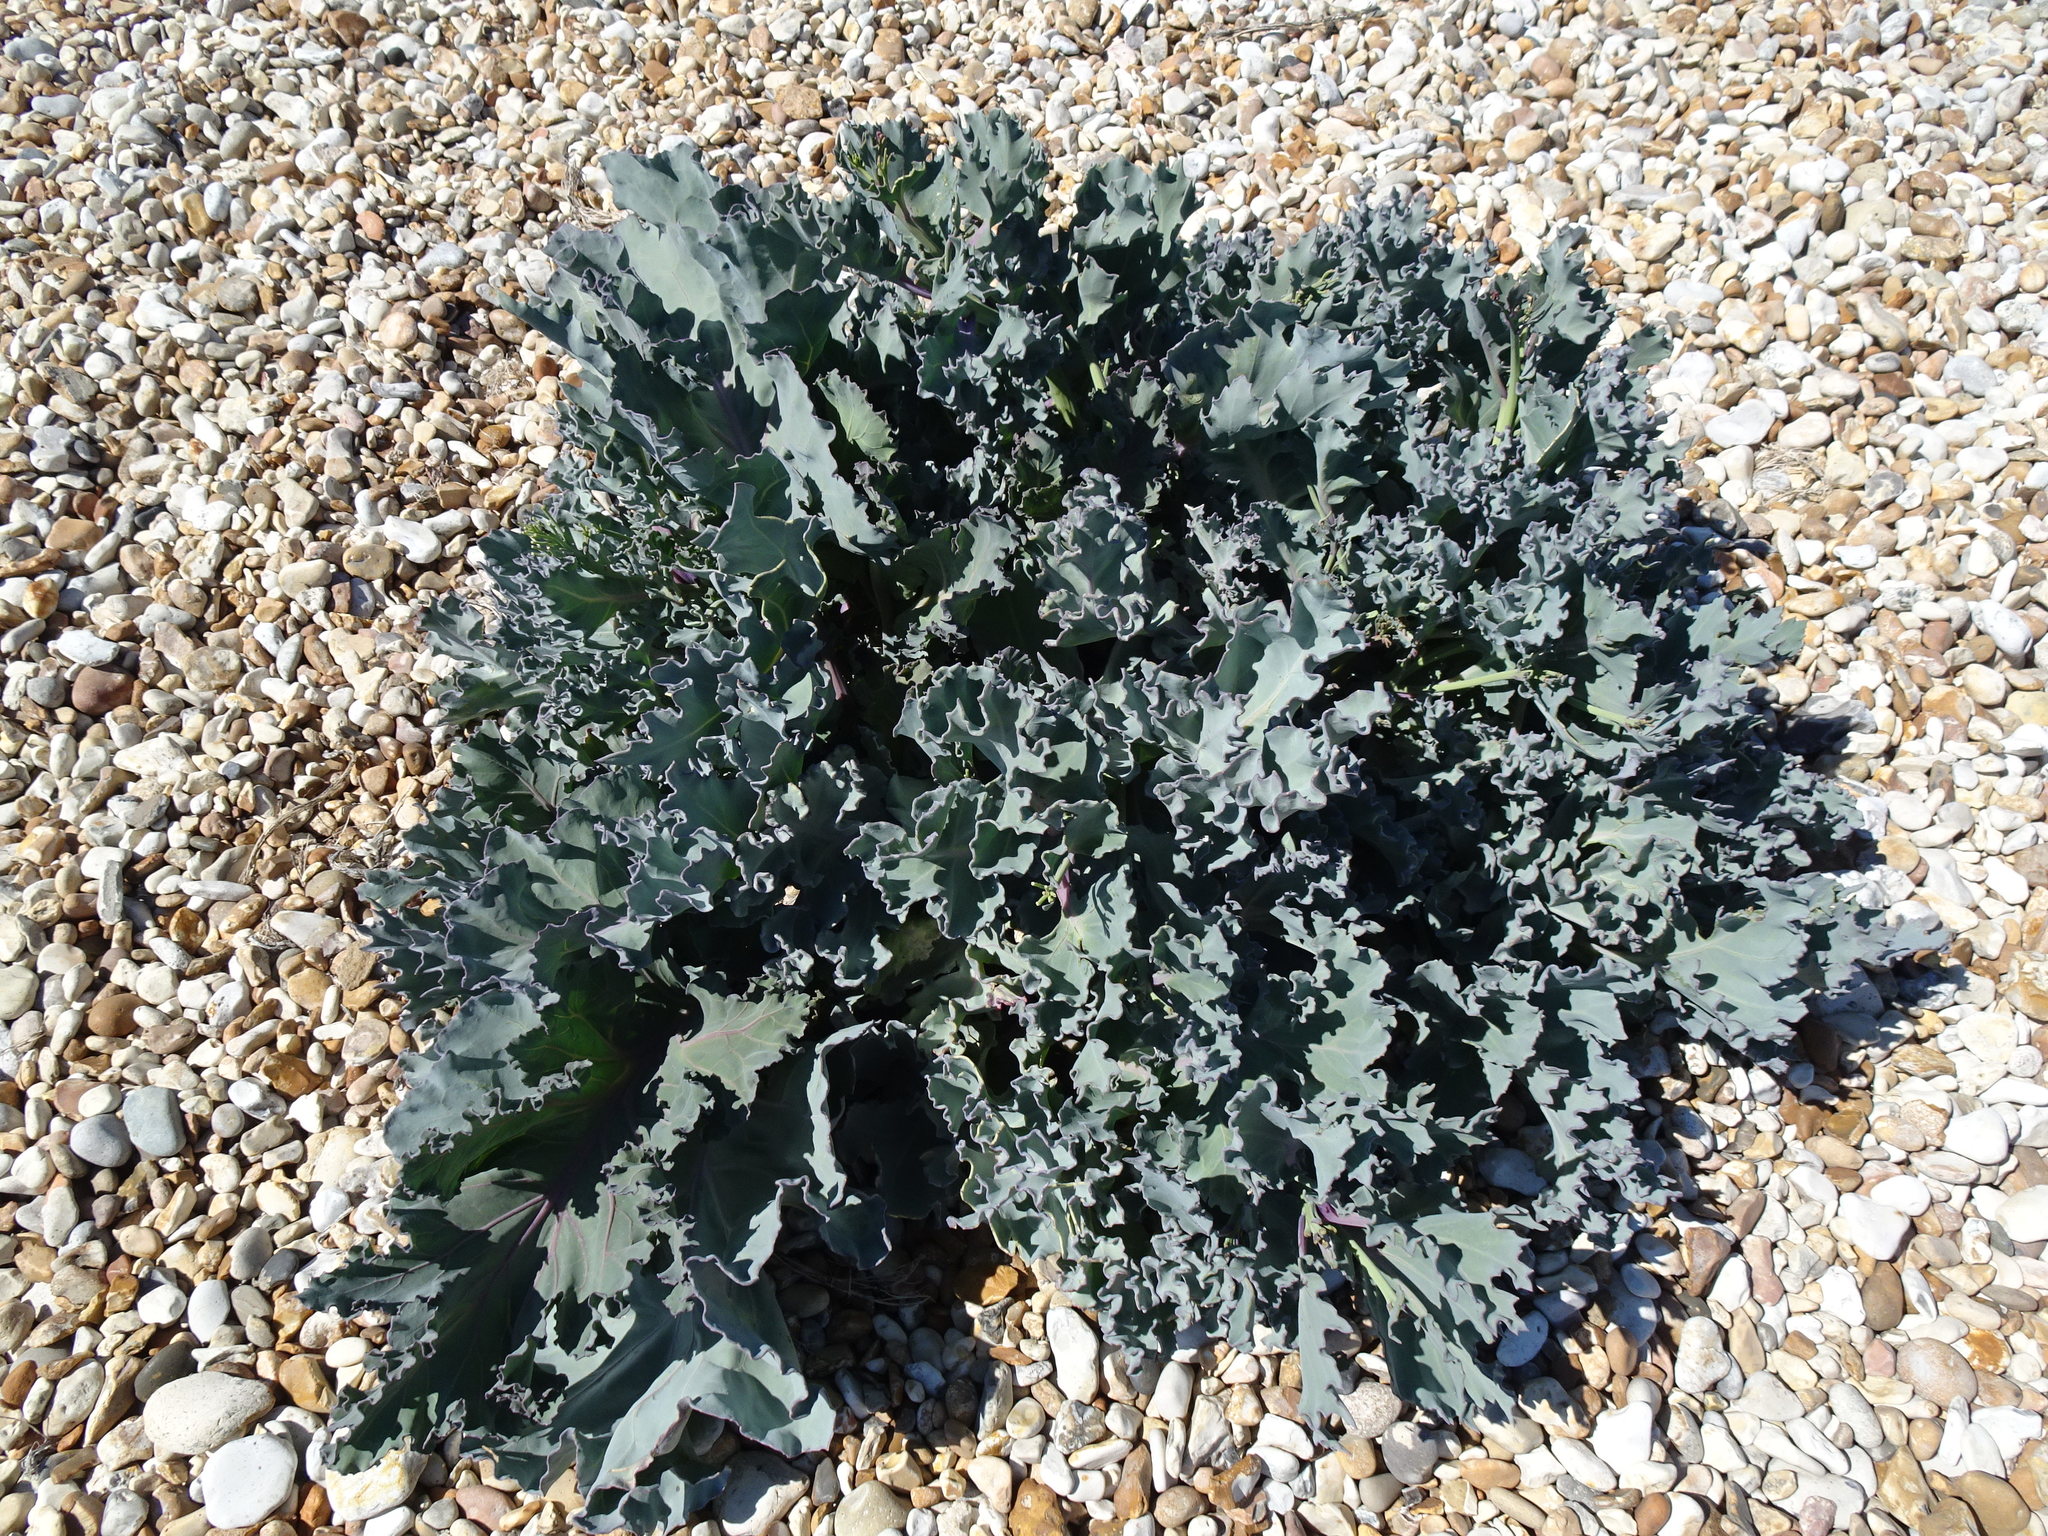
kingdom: Plantae
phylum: Tracheophyta
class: Magnoliopsida
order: Brassicales
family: Brassicaceae
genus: Crambe
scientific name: Crambe maritima
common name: Sea-kale
